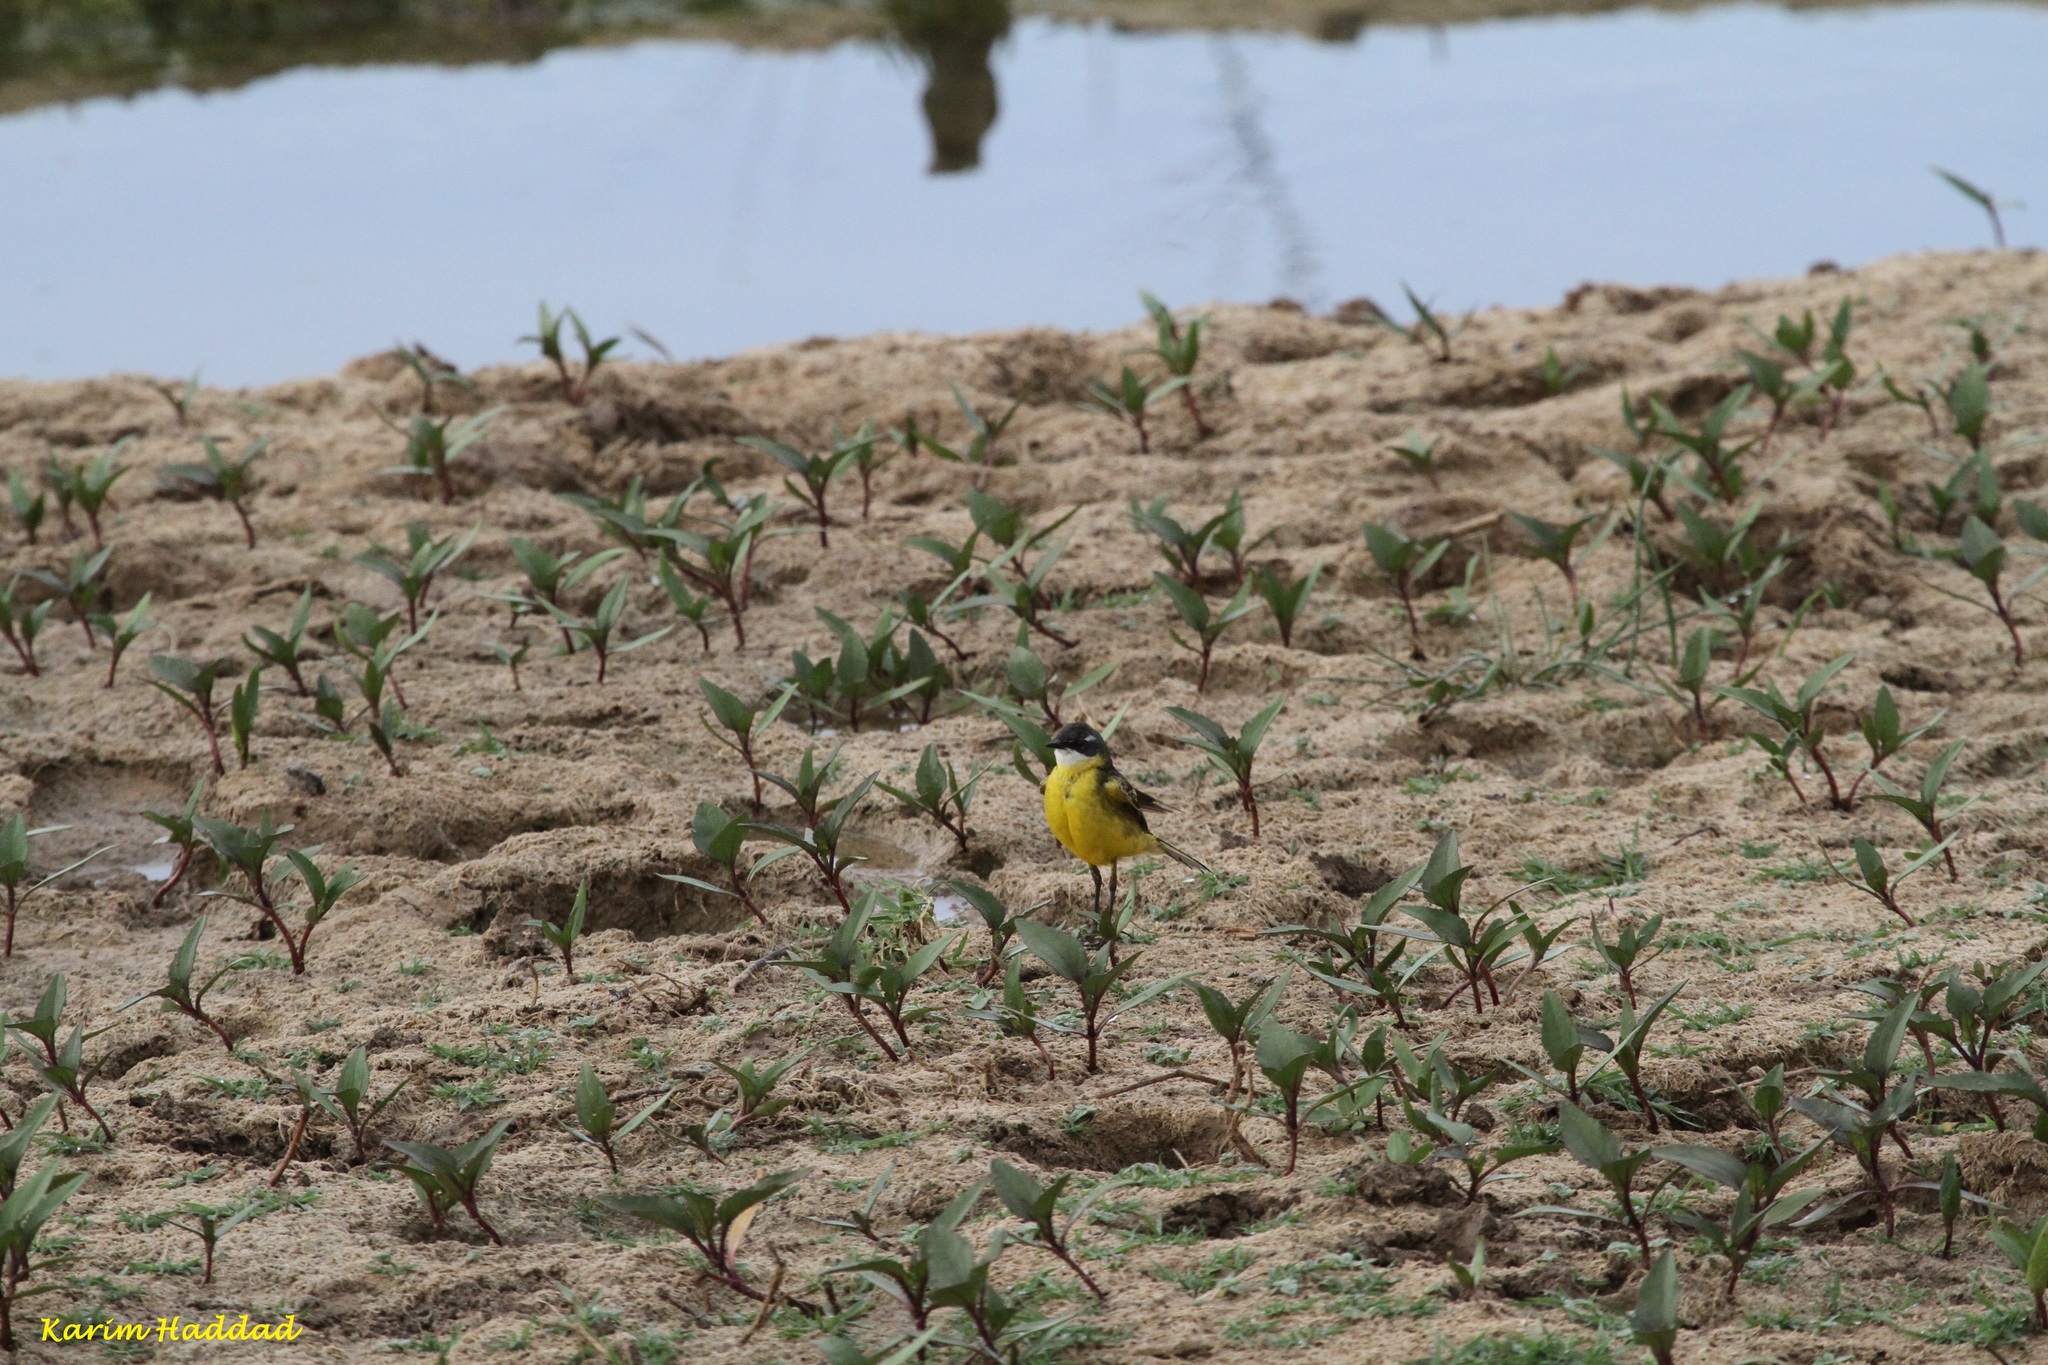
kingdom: Animalia
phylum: Chordata
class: Aves
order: Passeriformes
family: Motacillidae
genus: Motacilla
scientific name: Motacilla flava
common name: Western yellow wagtail
